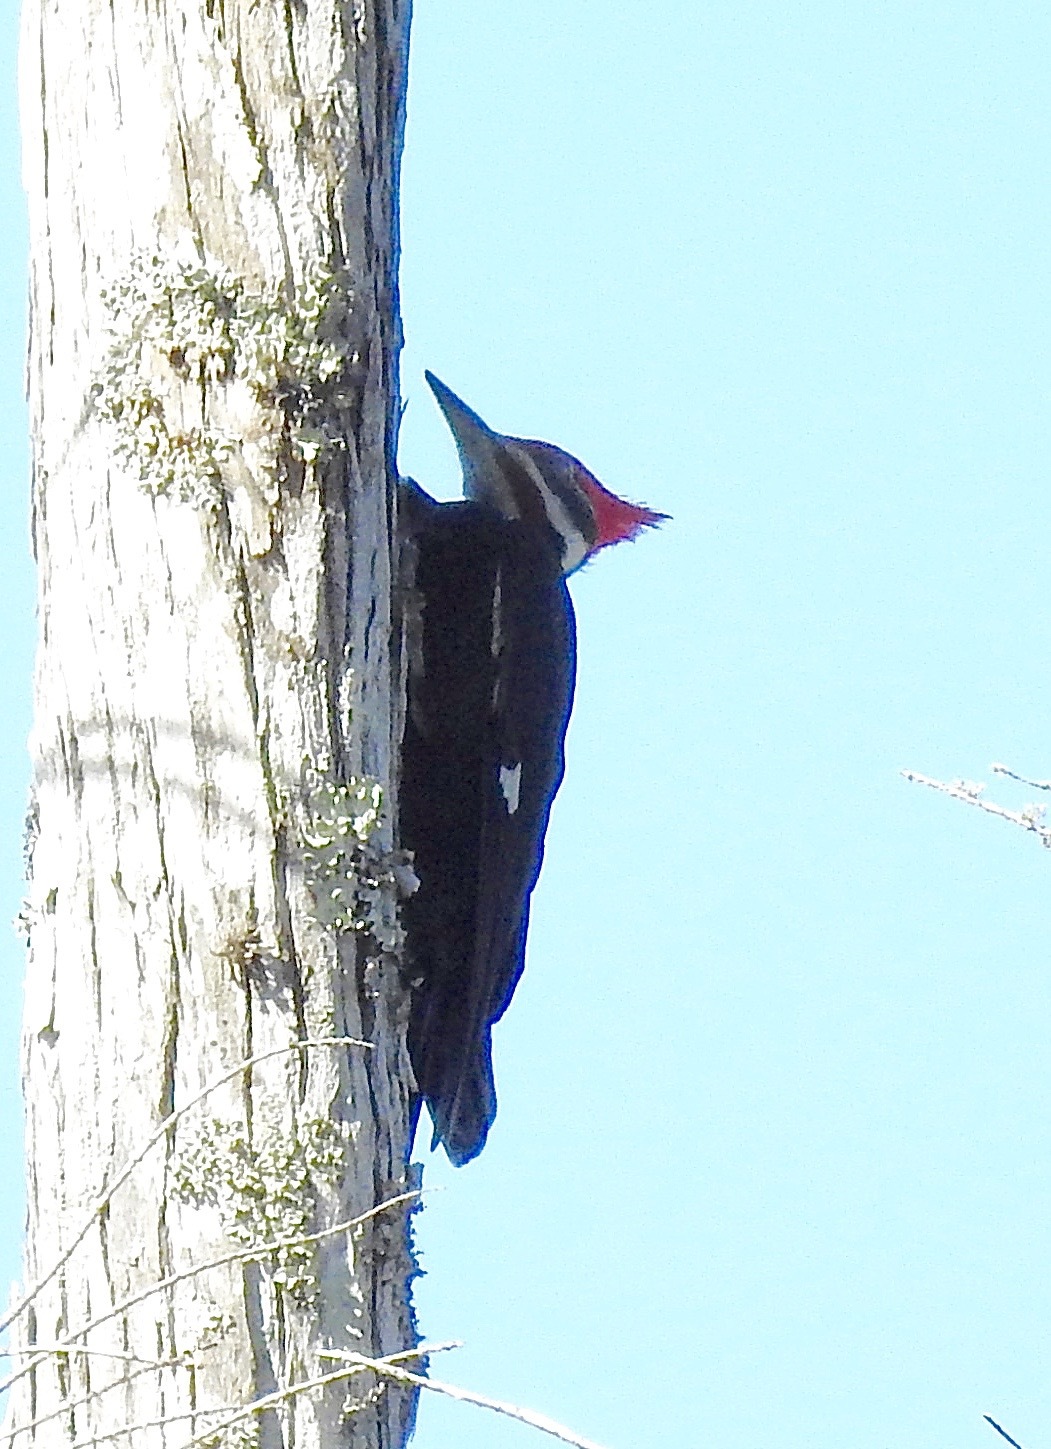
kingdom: Animalia
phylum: Chordata
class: Aves
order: Piciformes
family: Picidae
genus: Dryocopus
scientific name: Dryocopus pileatus
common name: Pileated woodpecker
